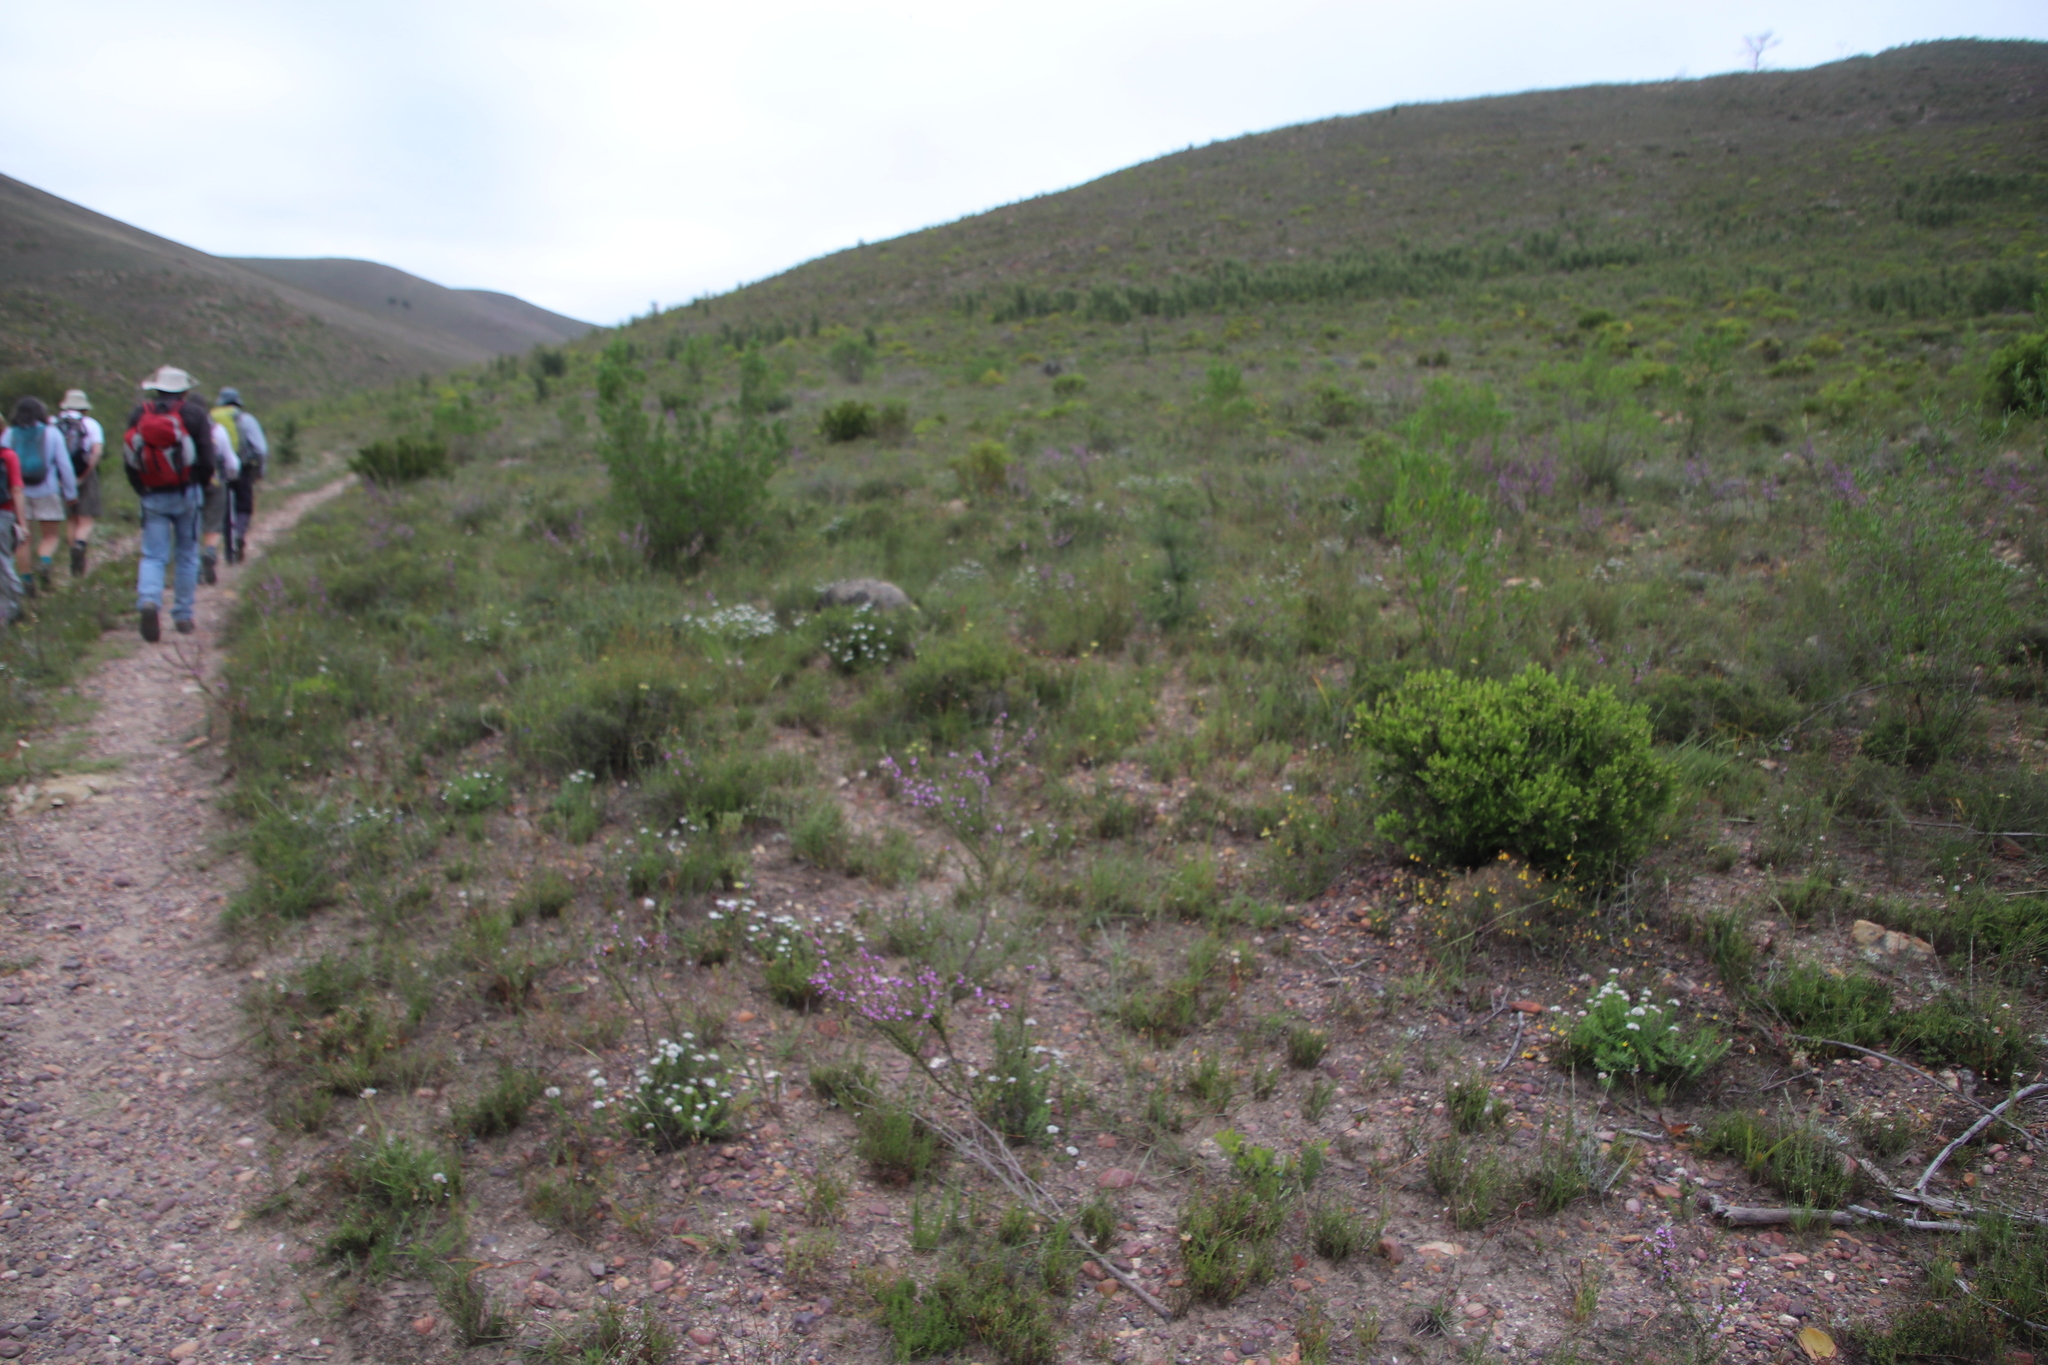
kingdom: Plantae
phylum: Tracheophyta
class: Magnoliopsida
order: Fabales
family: Polygalaceae
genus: Muraltia
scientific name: Muraltia heisteria
